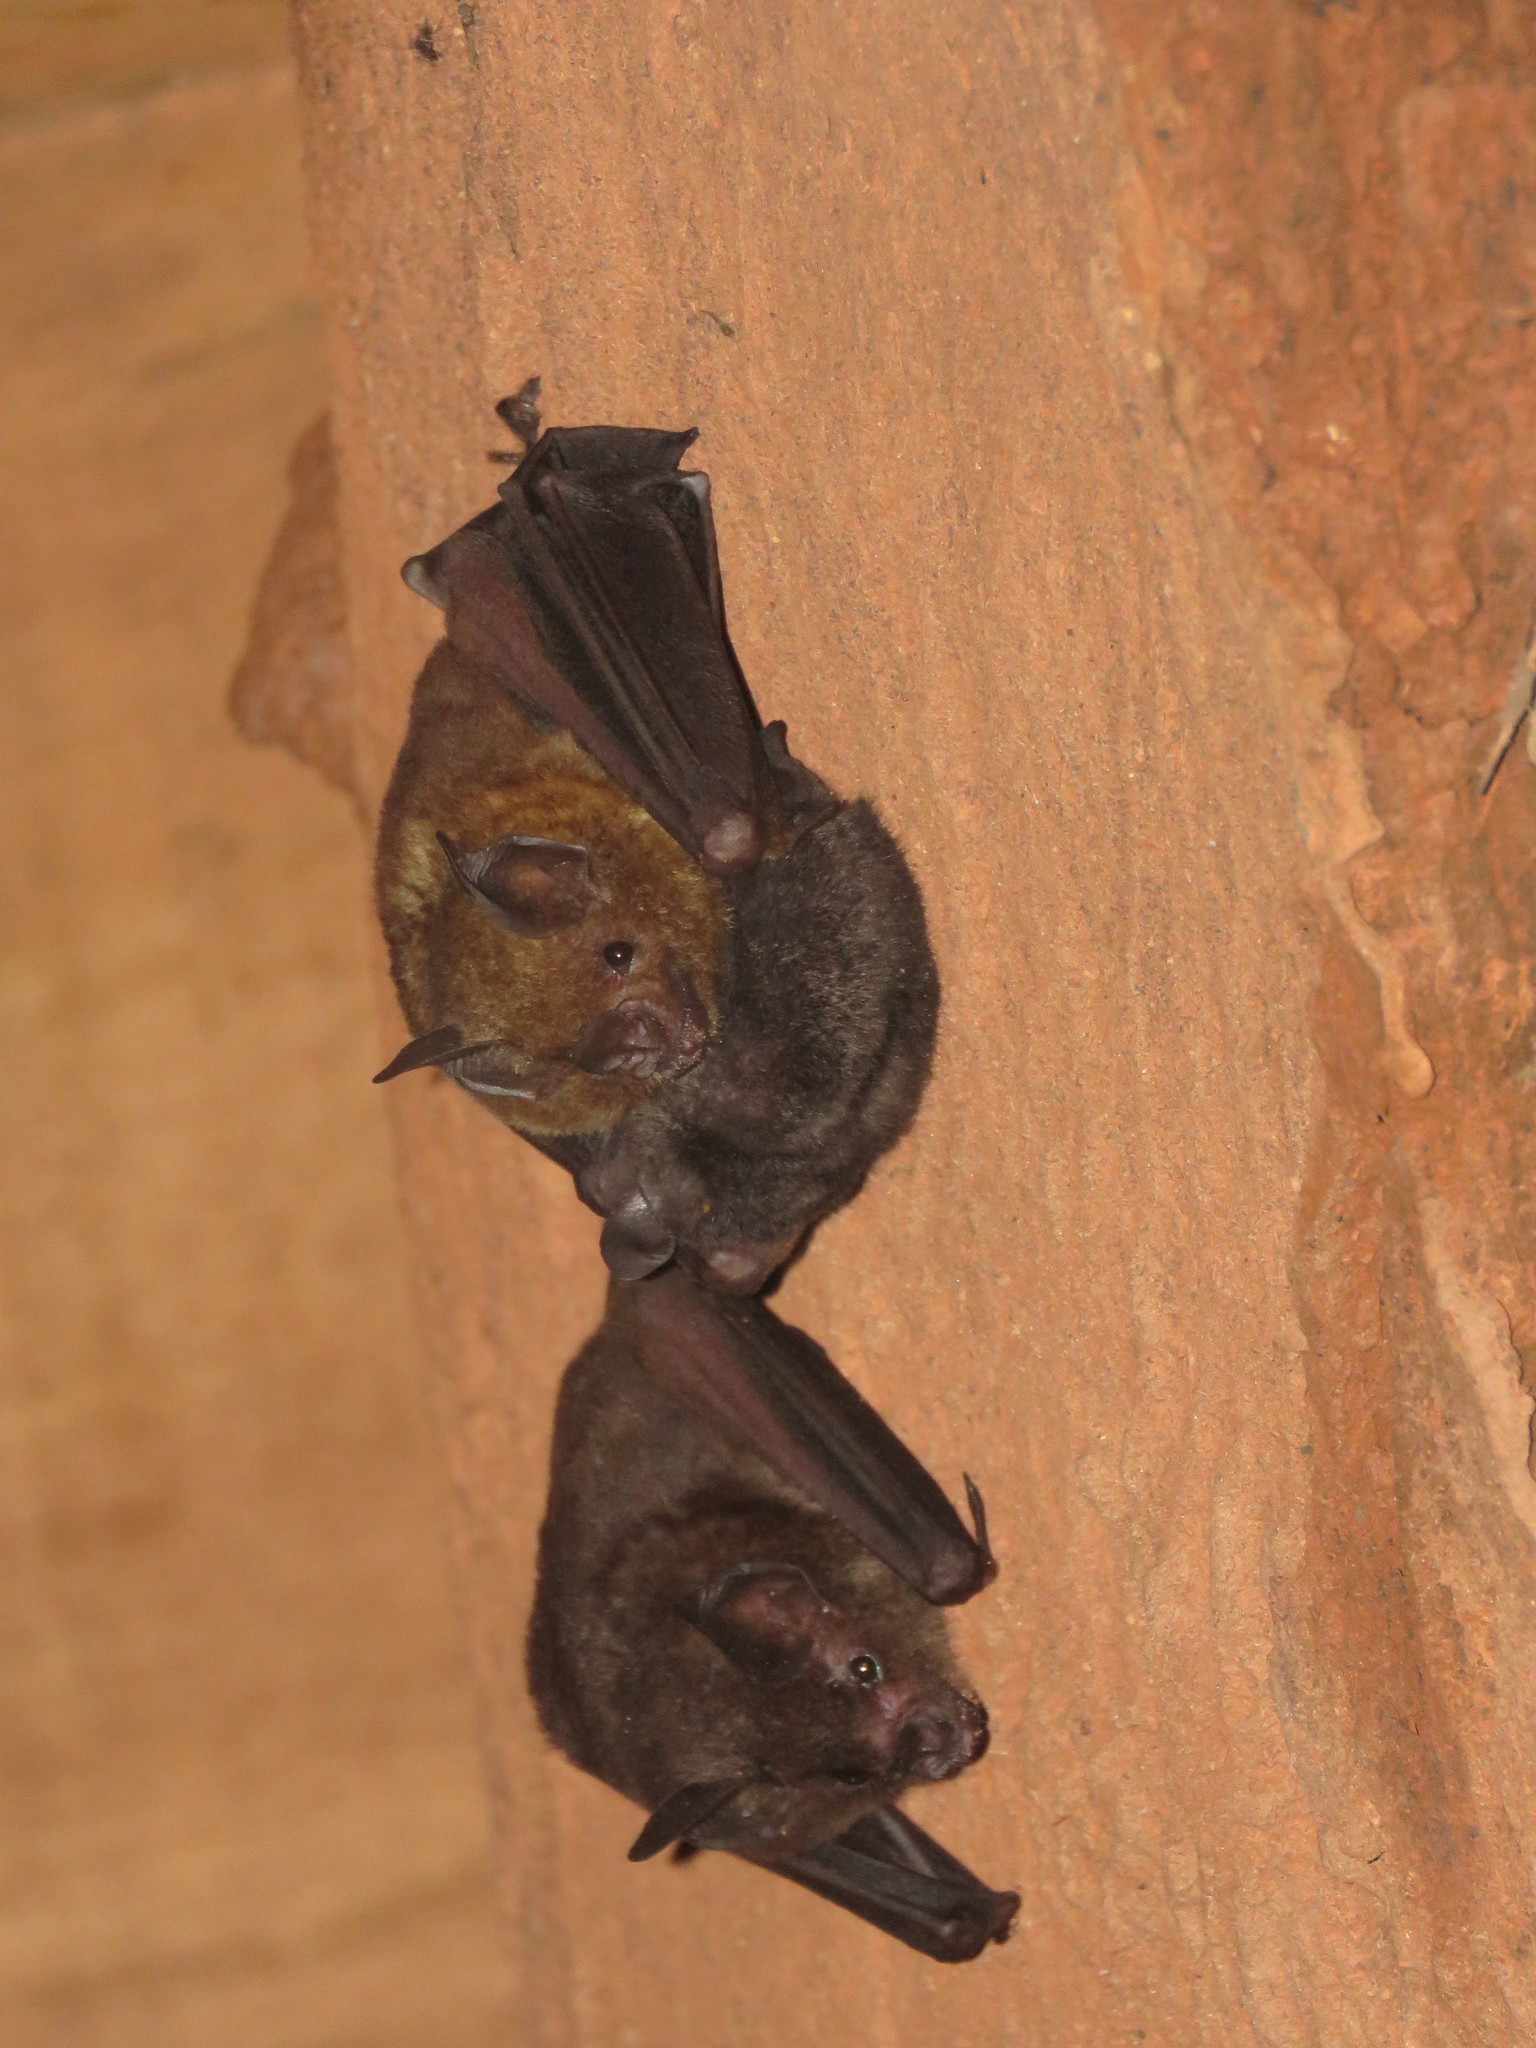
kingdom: Animalia
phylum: Chordata
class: Mammalia
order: Chiroptera
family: Phyllostomidae
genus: Carollia
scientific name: Carollia brevicaudum
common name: Silky short-tailed bat
